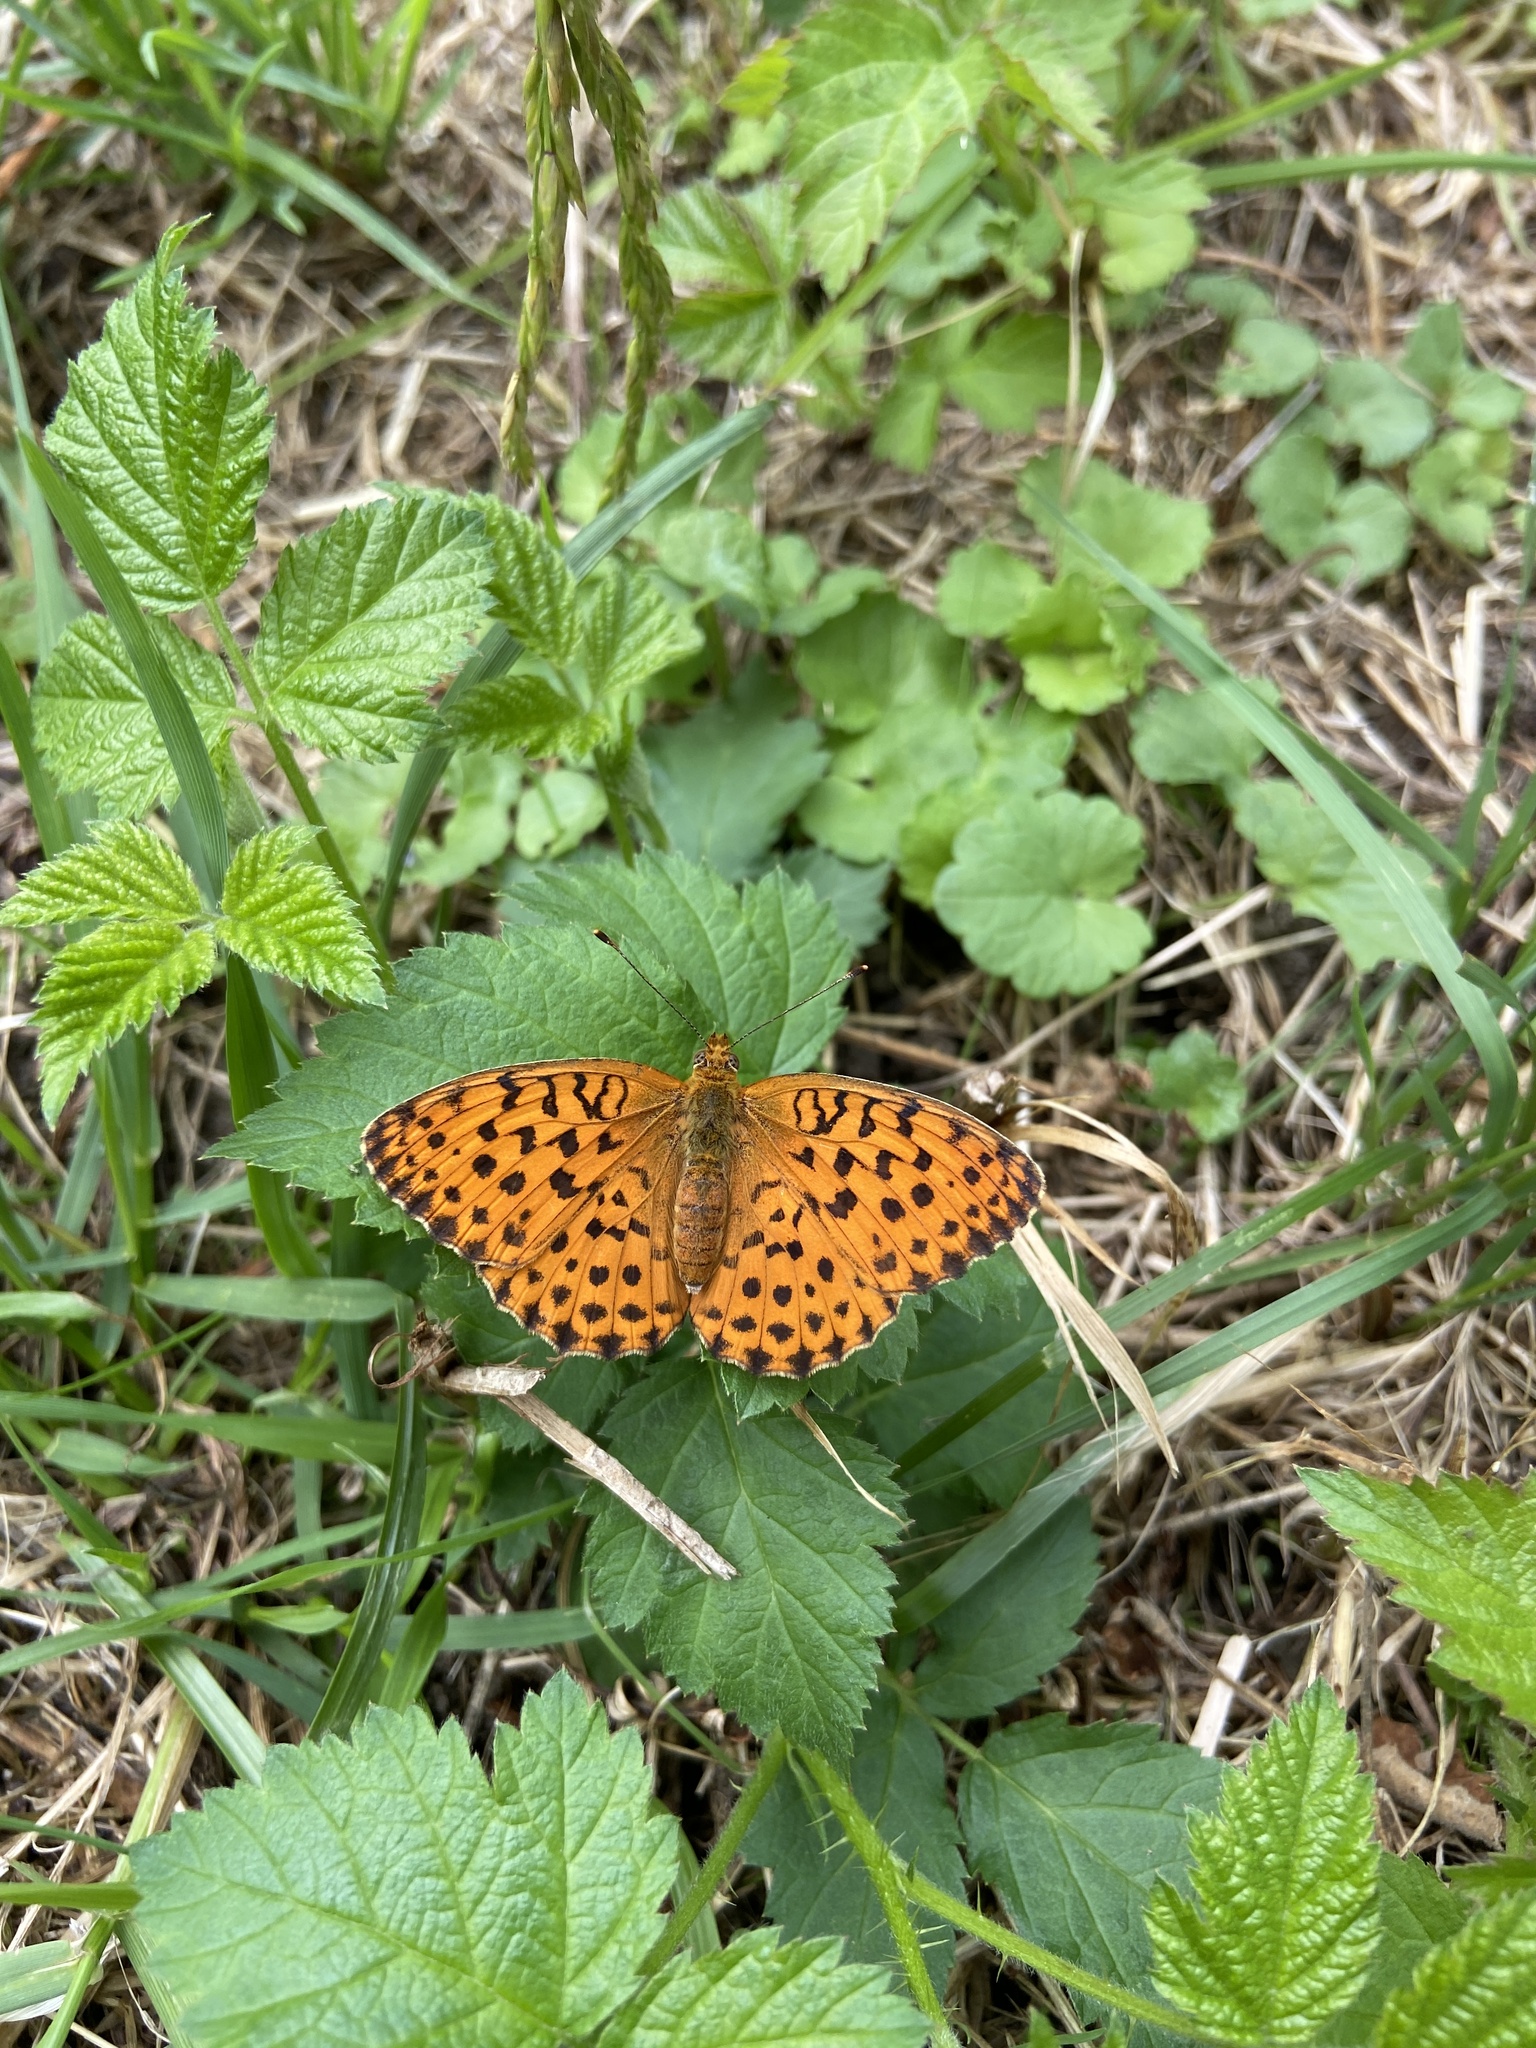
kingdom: Animalia
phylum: Arthropoda
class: Insecta
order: Lepidoptera
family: Nymphalidae
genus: Brenthis
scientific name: Brenthis daphne
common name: Marbled fritillary
